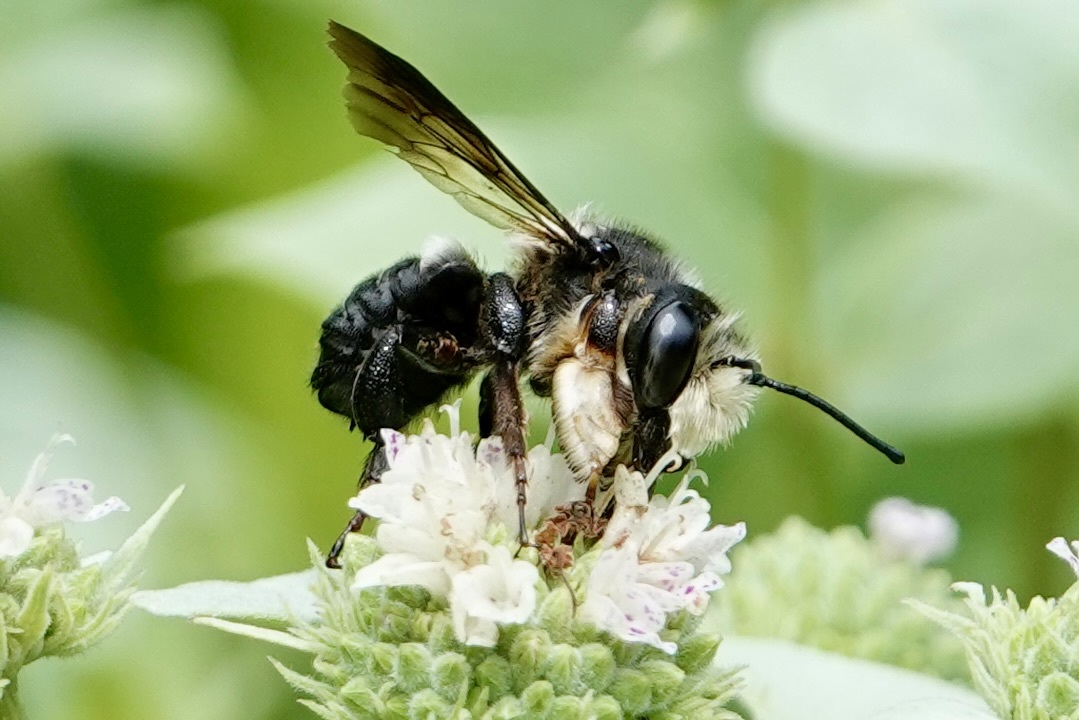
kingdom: Animalia
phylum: Arthropoda
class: Insecta
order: Hymenoptera
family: Megachilidae
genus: Megachile
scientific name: Megachile xylocopoides
